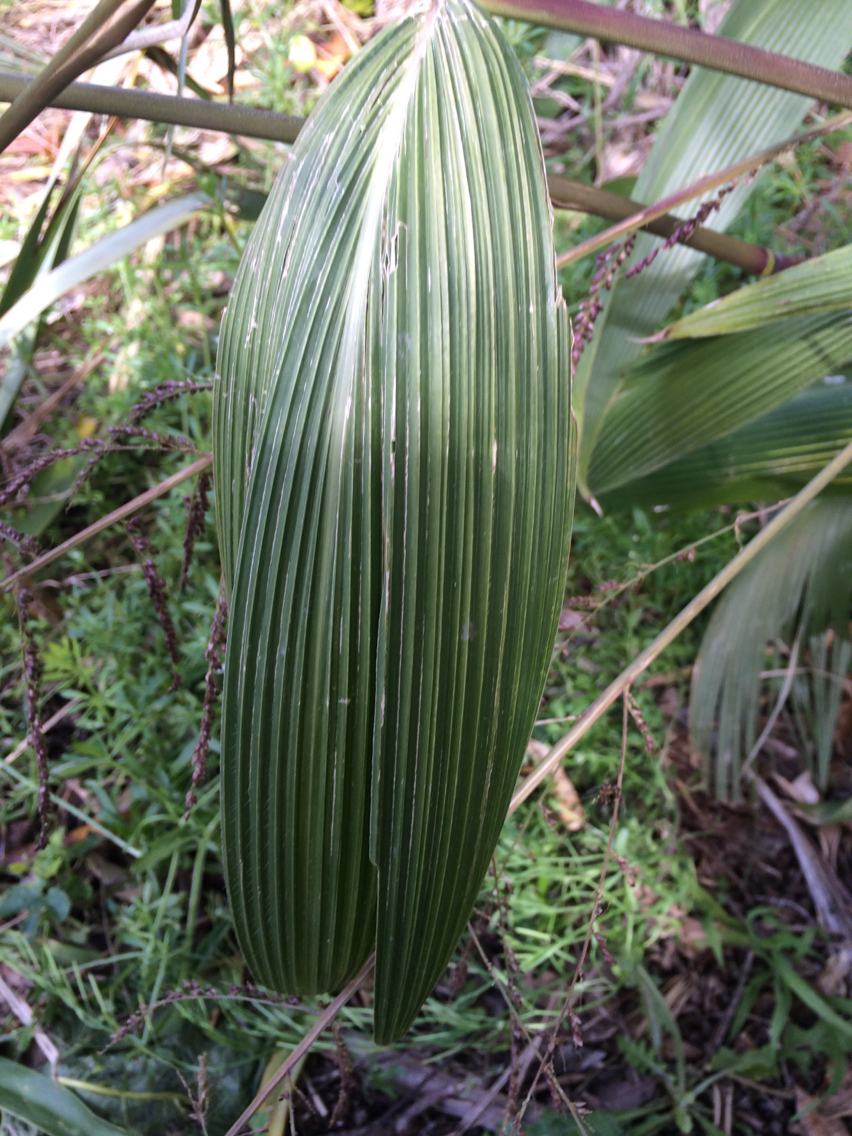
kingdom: Plantae
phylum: Tracheophyta
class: Liliopsida
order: Poales
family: Poaceae
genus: Setaria
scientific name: Setaria palmifolia
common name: Broadleaved bristlegrass
